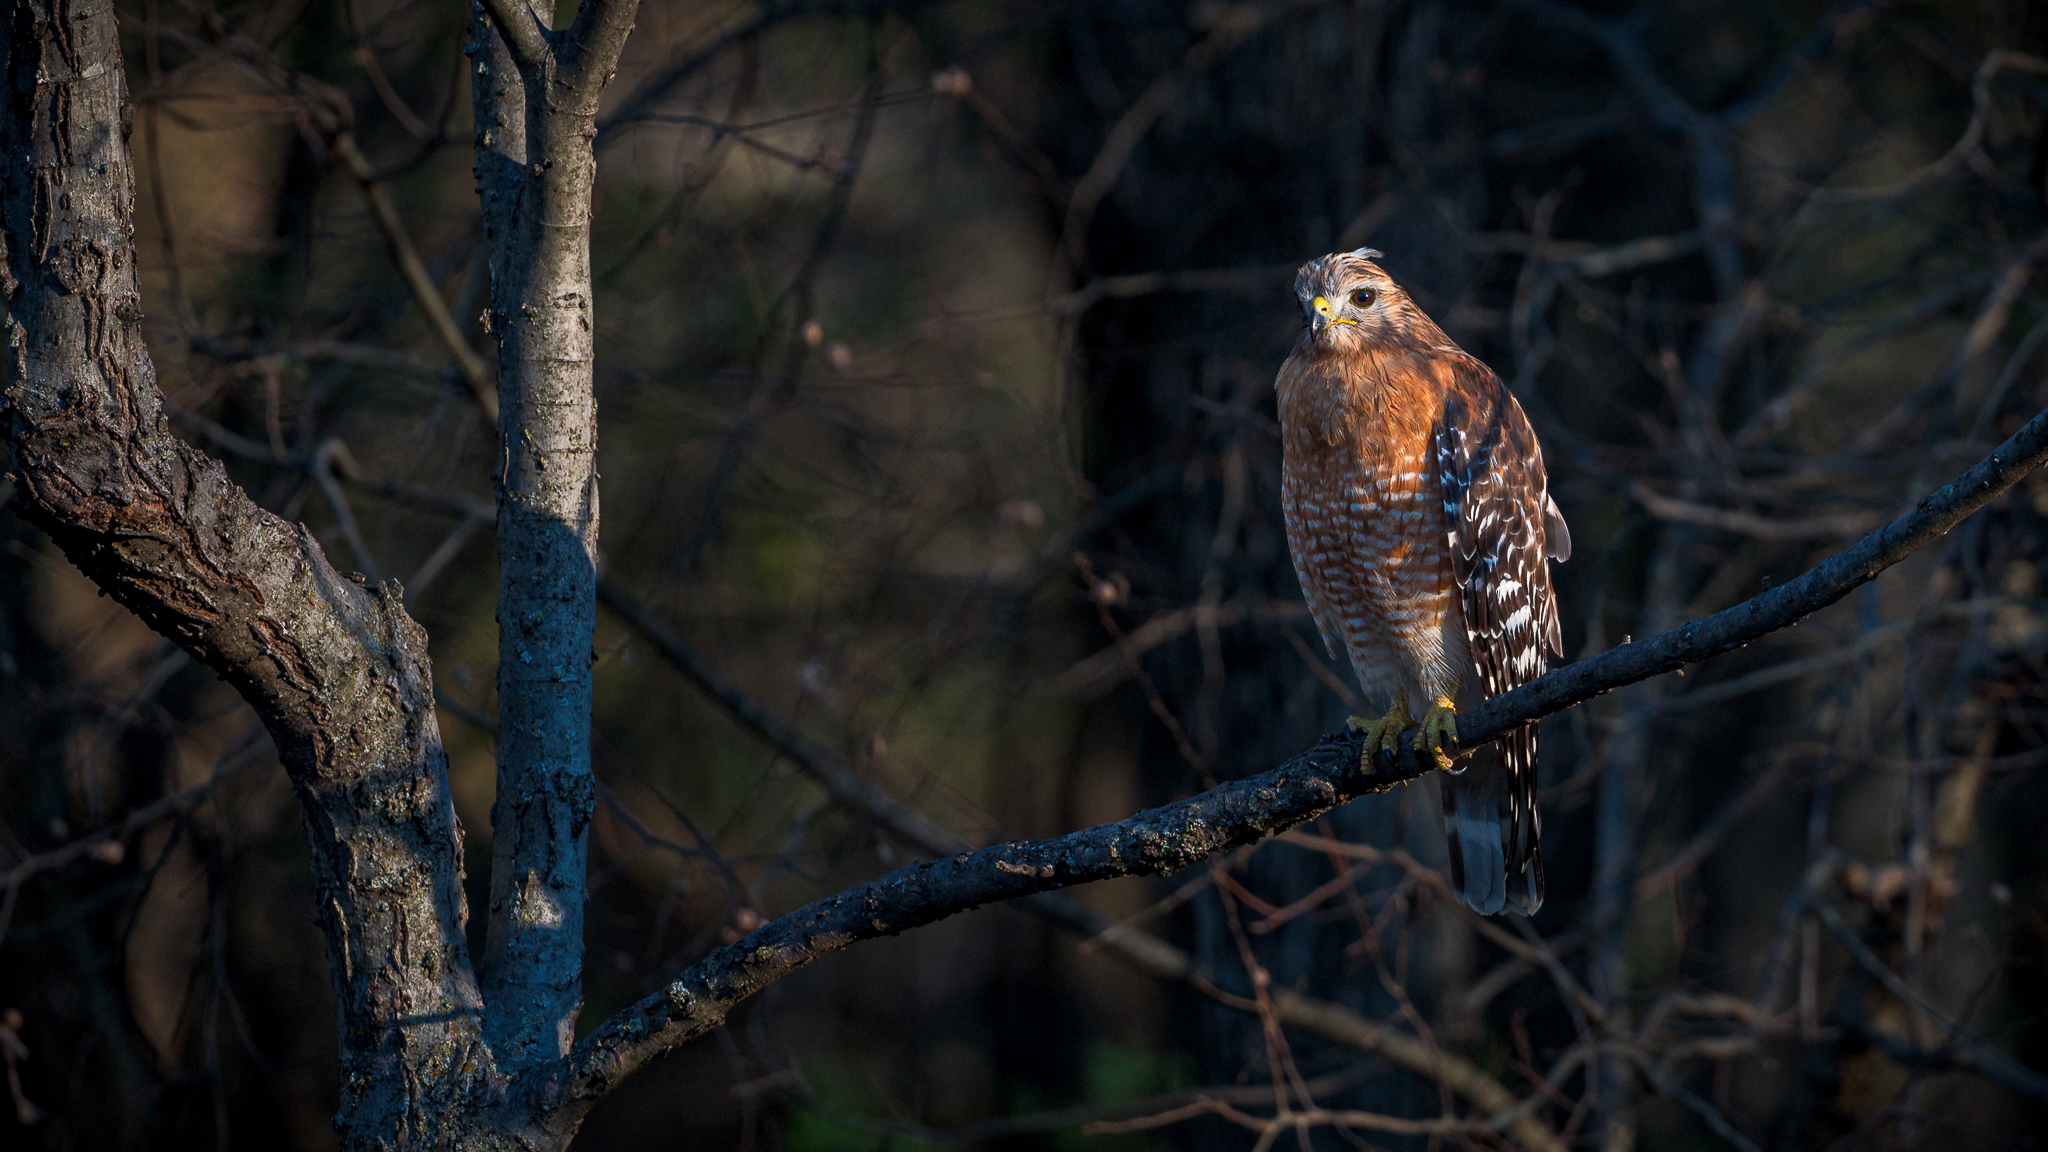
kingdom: Animalia
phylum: Chordata
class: Aves
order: Accipitriformes
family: Accipitridae
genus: Buteo
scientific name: Buteo lineatus
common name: Red-shouldered hawk
